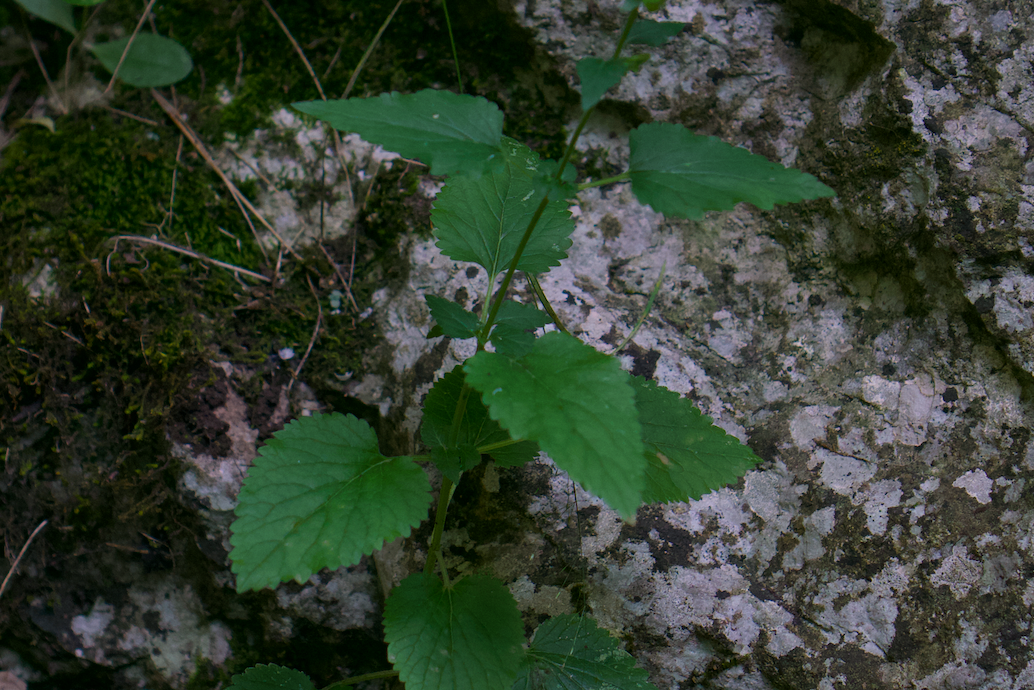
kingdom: Plantae
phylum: Tracheophyta
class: Magnoliopsida
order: Lamiales
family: Lamiaceae
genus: Scutellaria
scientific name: Scutellaria altissima
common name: Somerset skullcap
